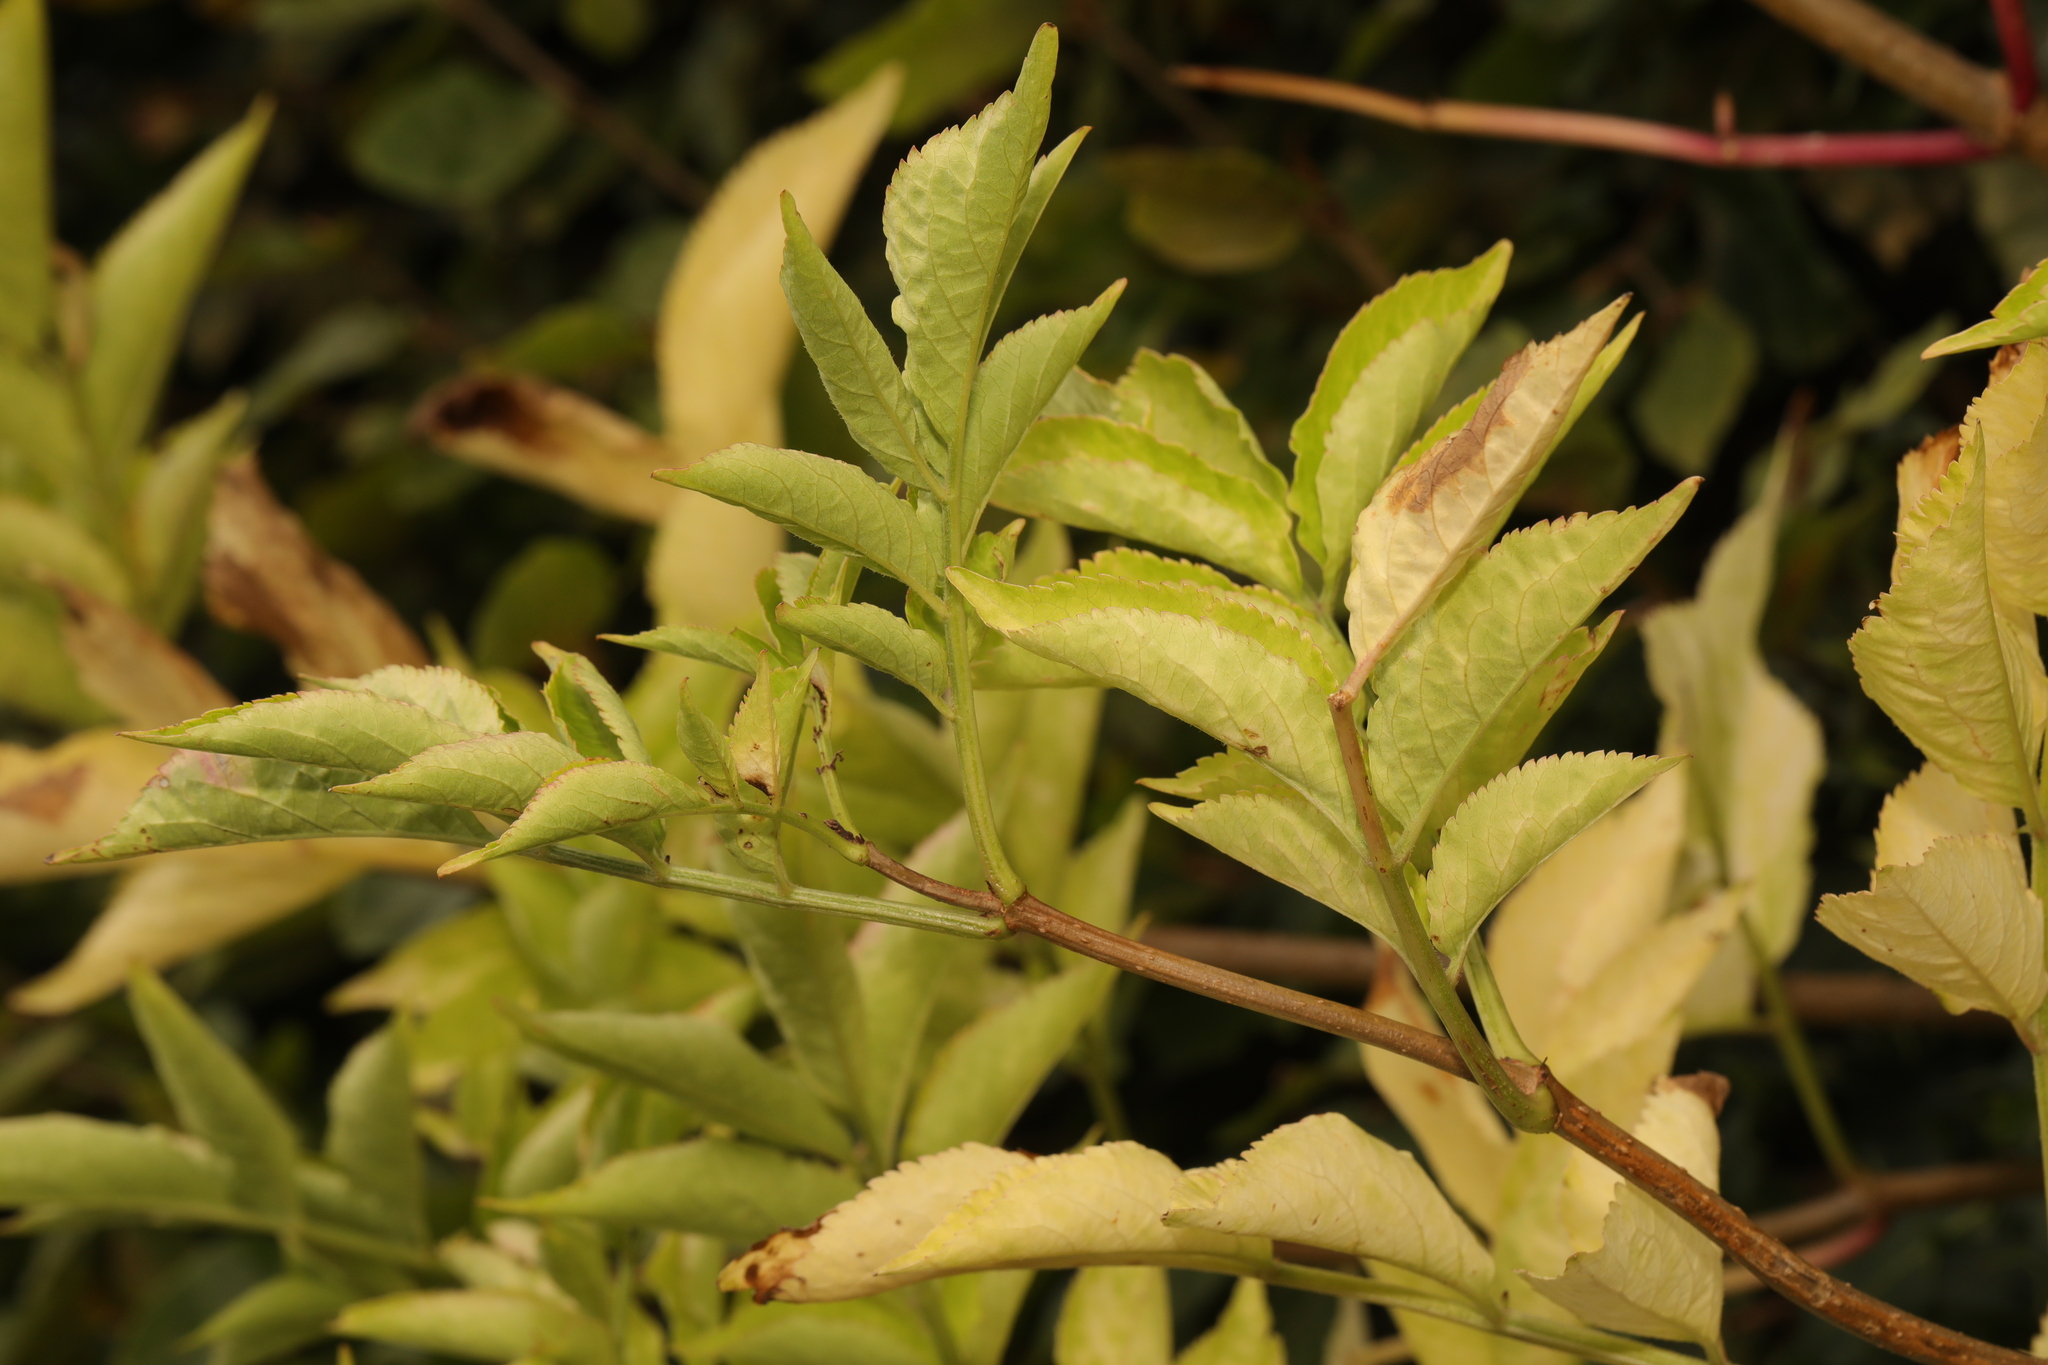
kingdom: Plantae
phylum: Tracheophyta
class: Magnoliopsida
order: Dipsacales
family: Viburnaceae
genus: Sambucus
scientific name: Sambucus nigra
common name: Elder
